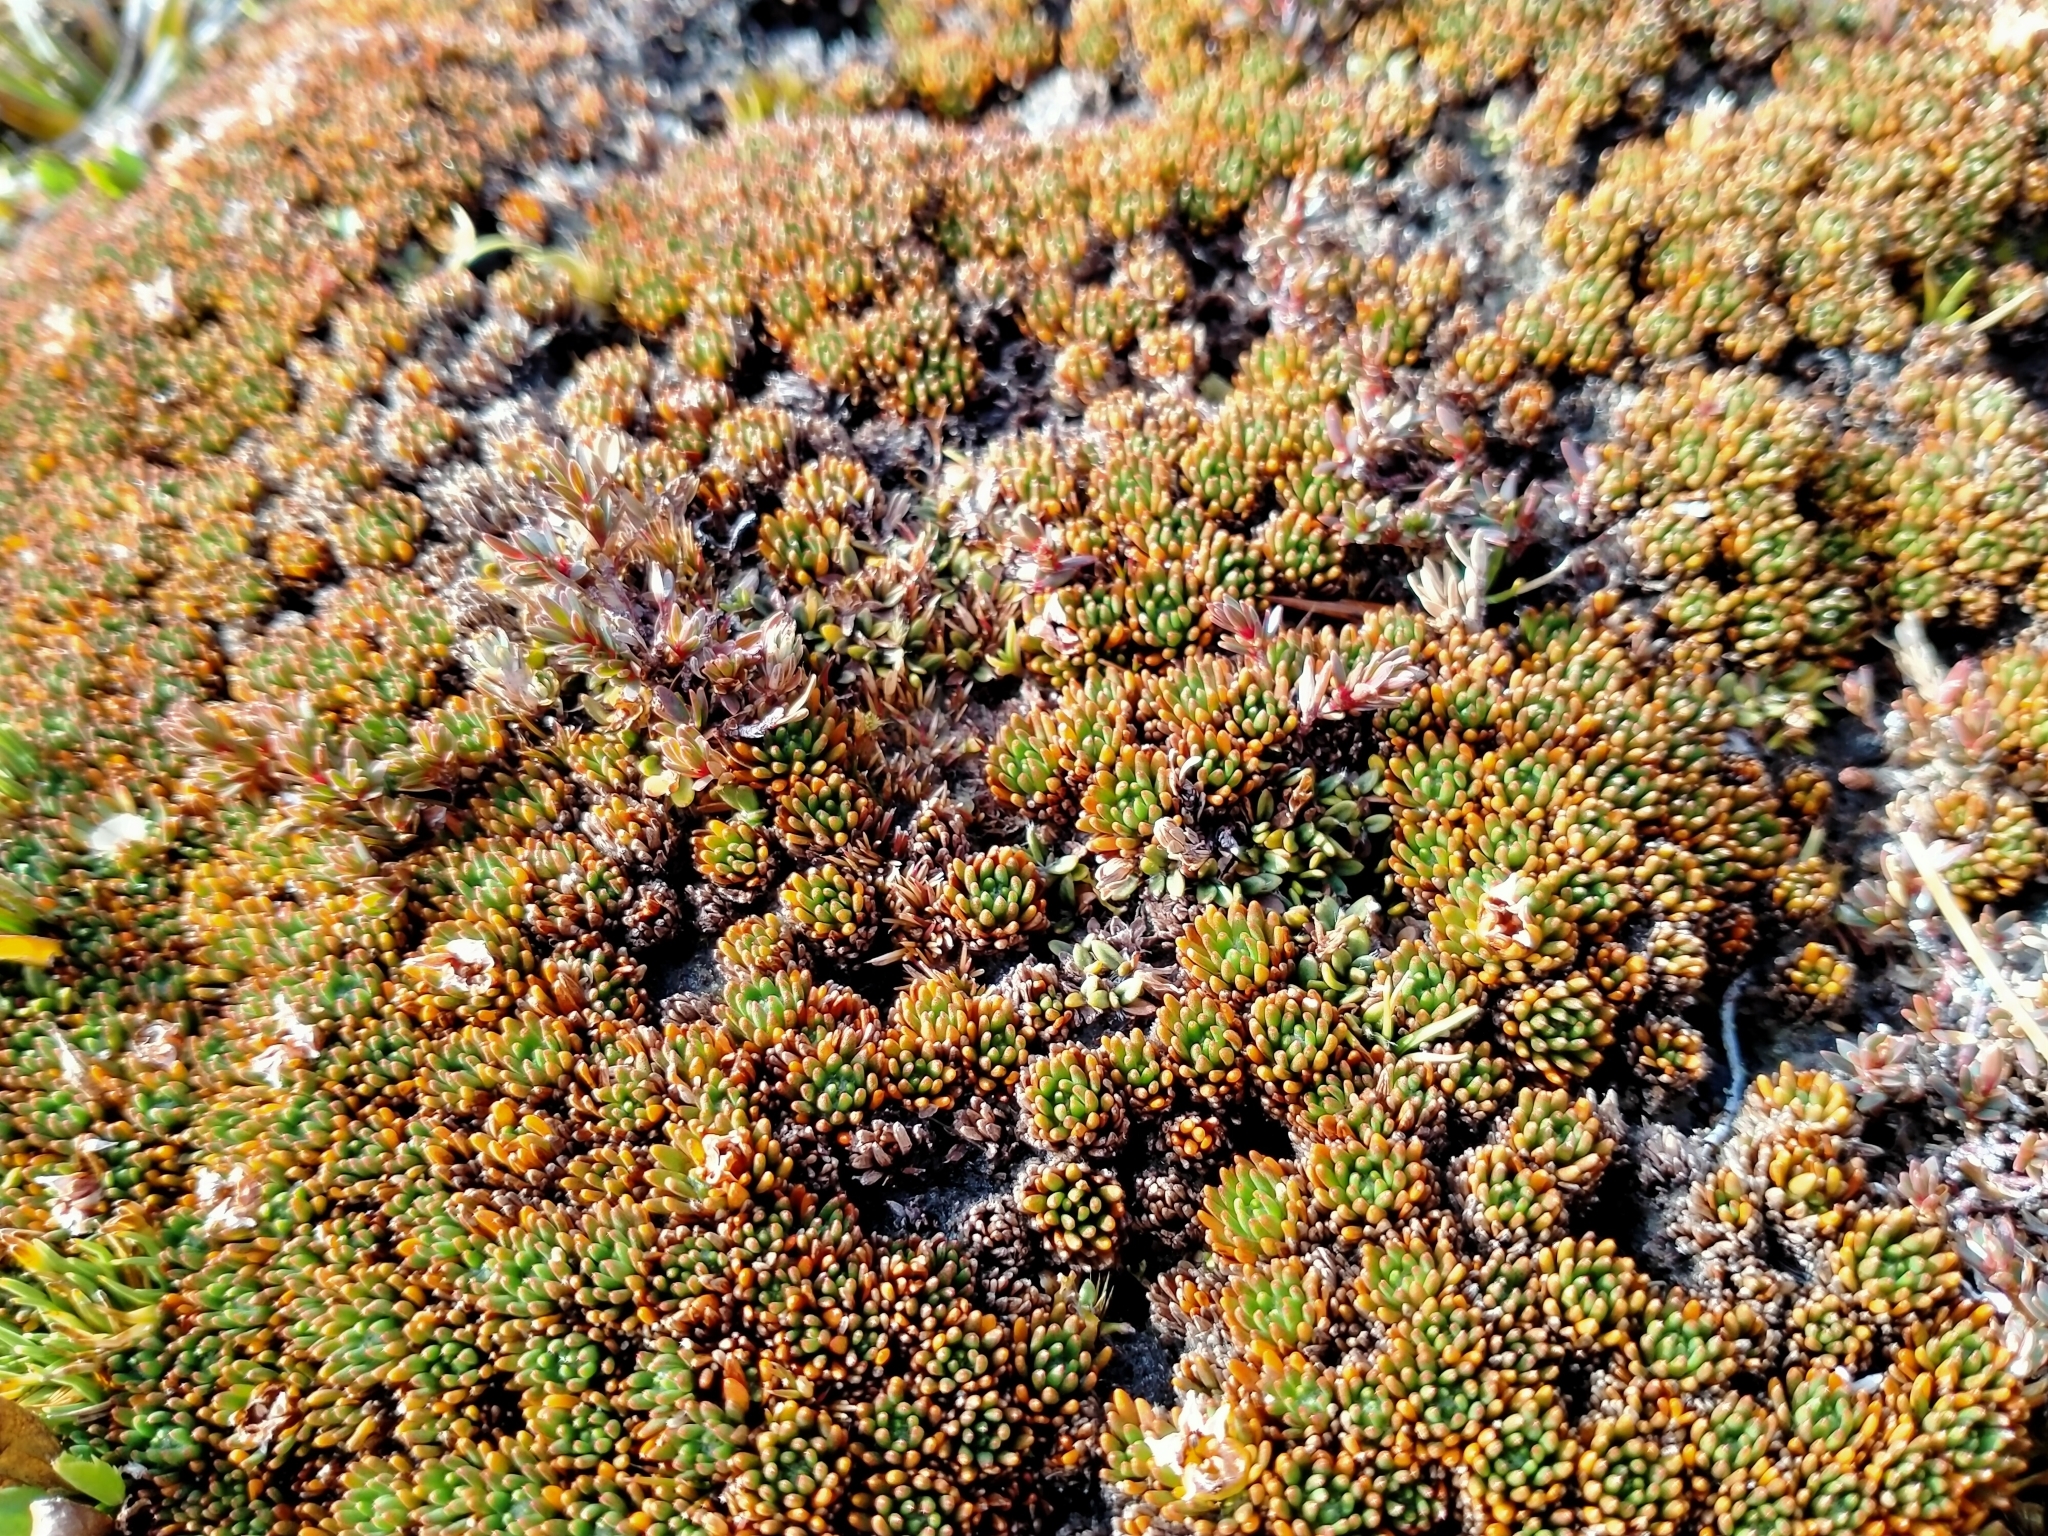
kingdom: Plantae
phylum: Tracheophyta
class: Magnoliopsida
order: Asterales
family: Stylidiaceae
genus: Donatia
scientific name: Donatia novae-zelandiae
